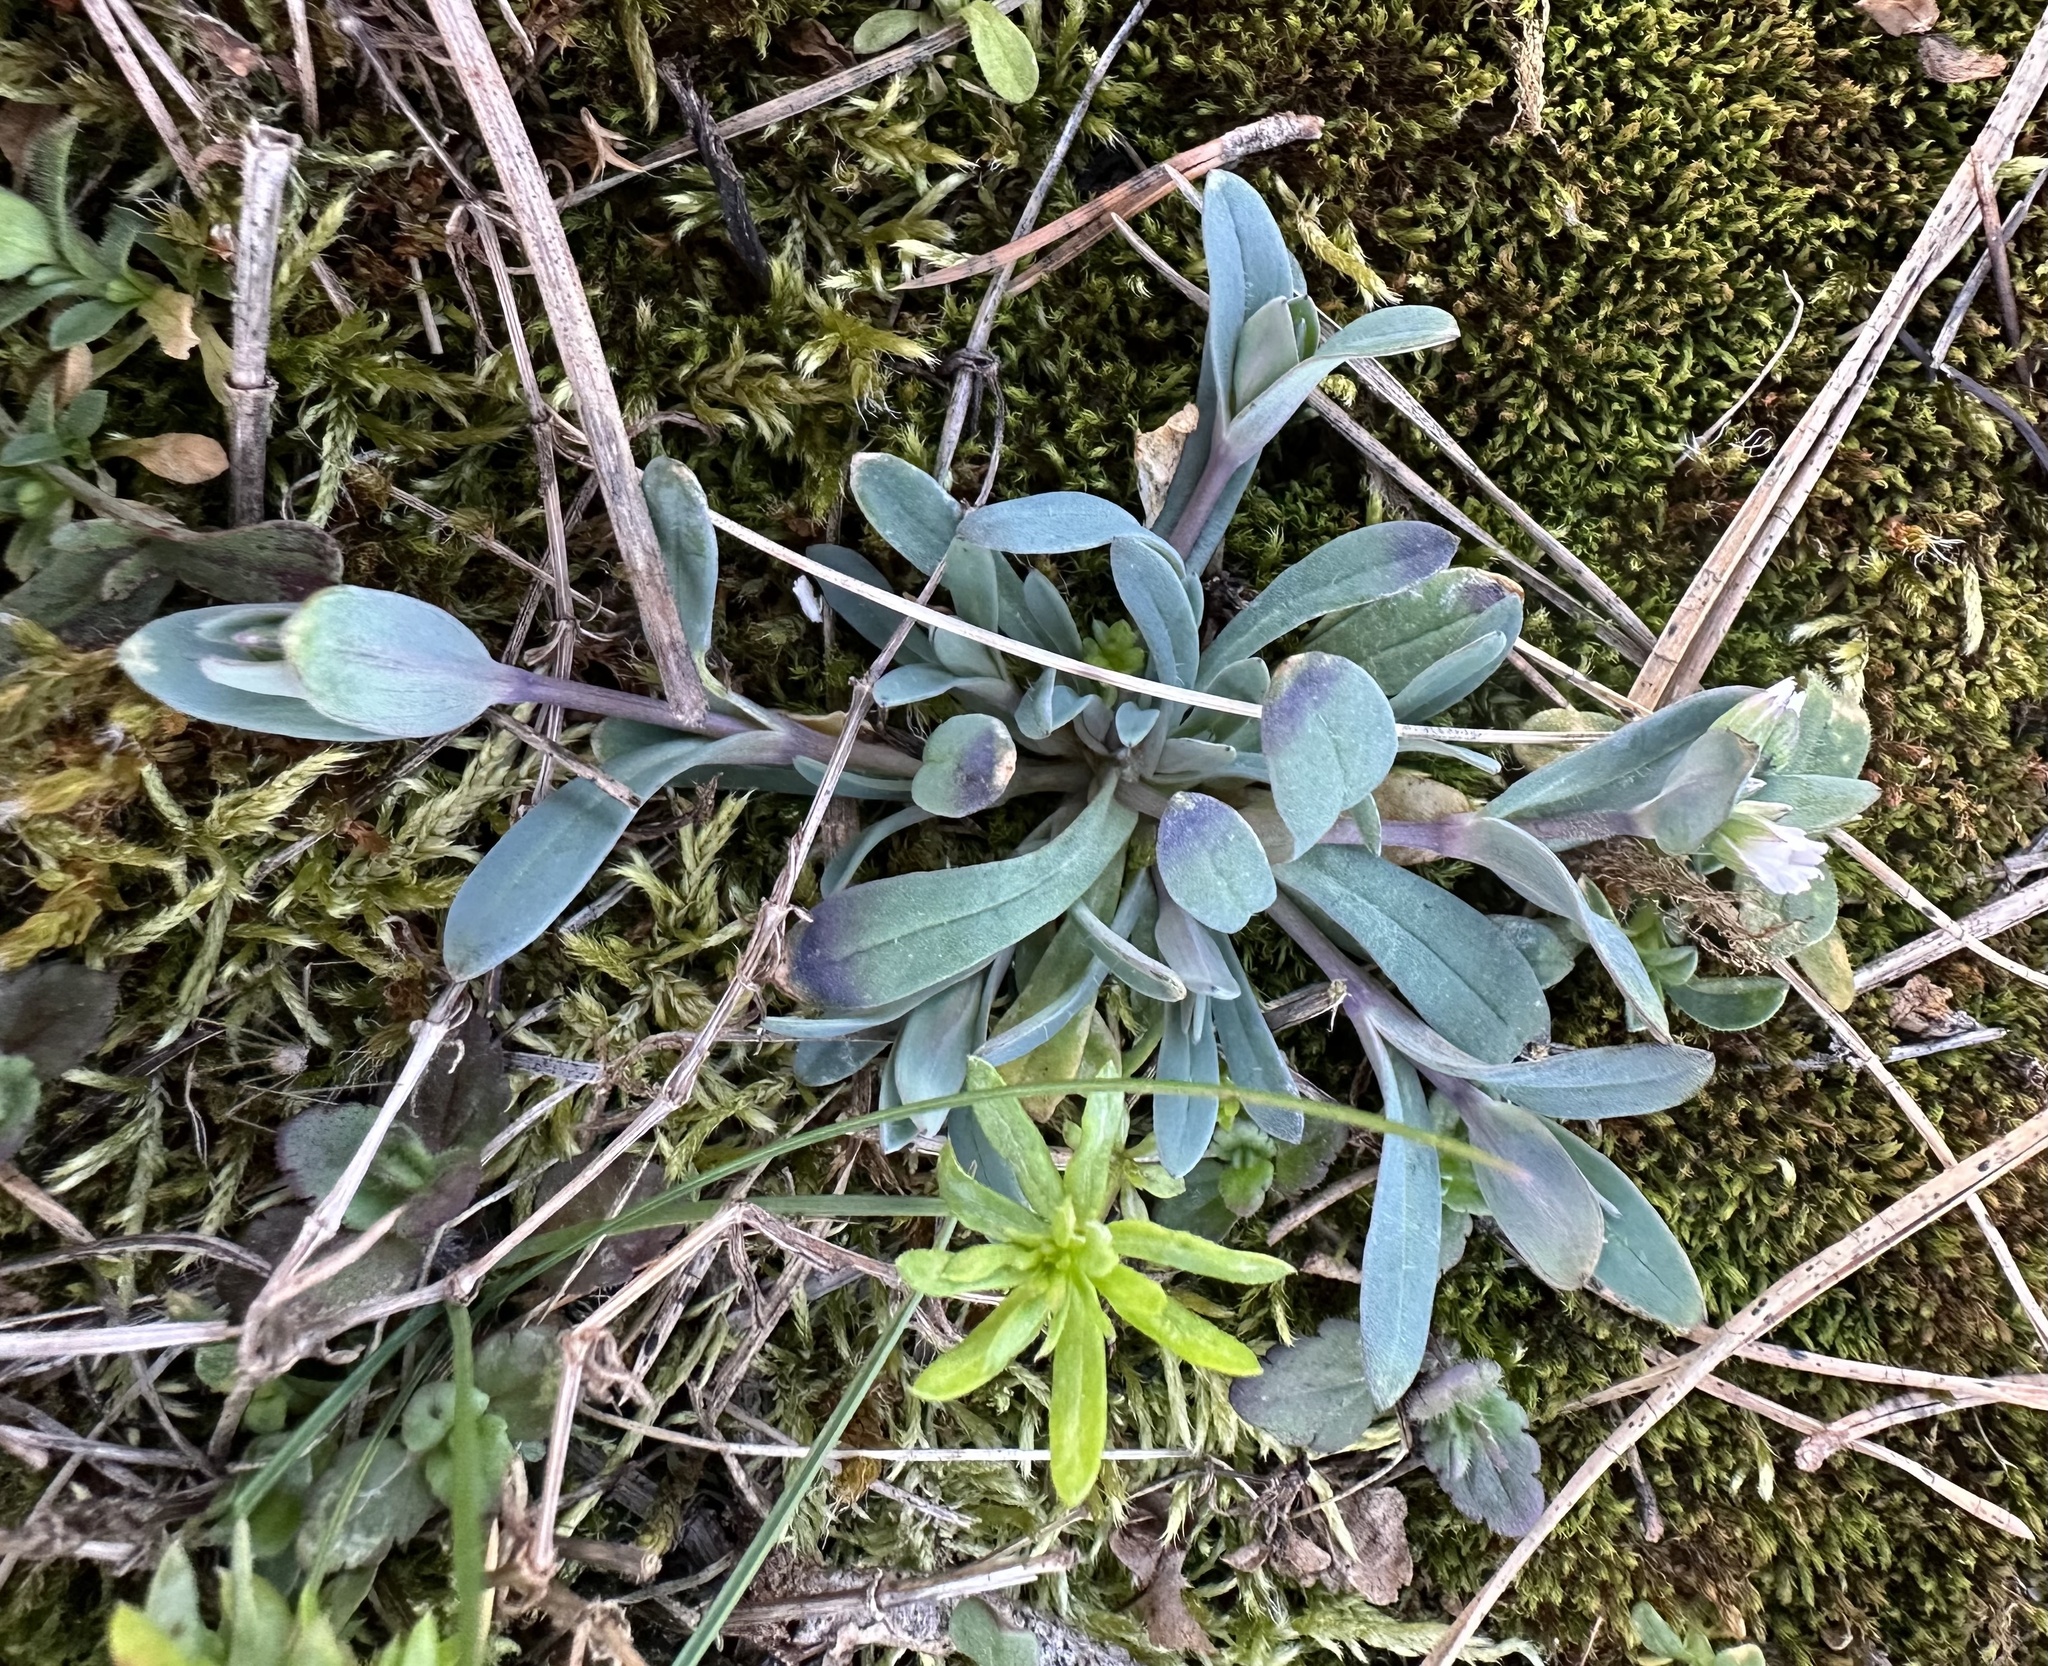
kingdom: Plantae
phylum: Tracheophyta
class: Magnoliopsida
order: Caryophyllales
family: Caryophyllaceae
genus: Holosteum
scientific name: Holosteum umbellatum
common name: Jagged chickweed
